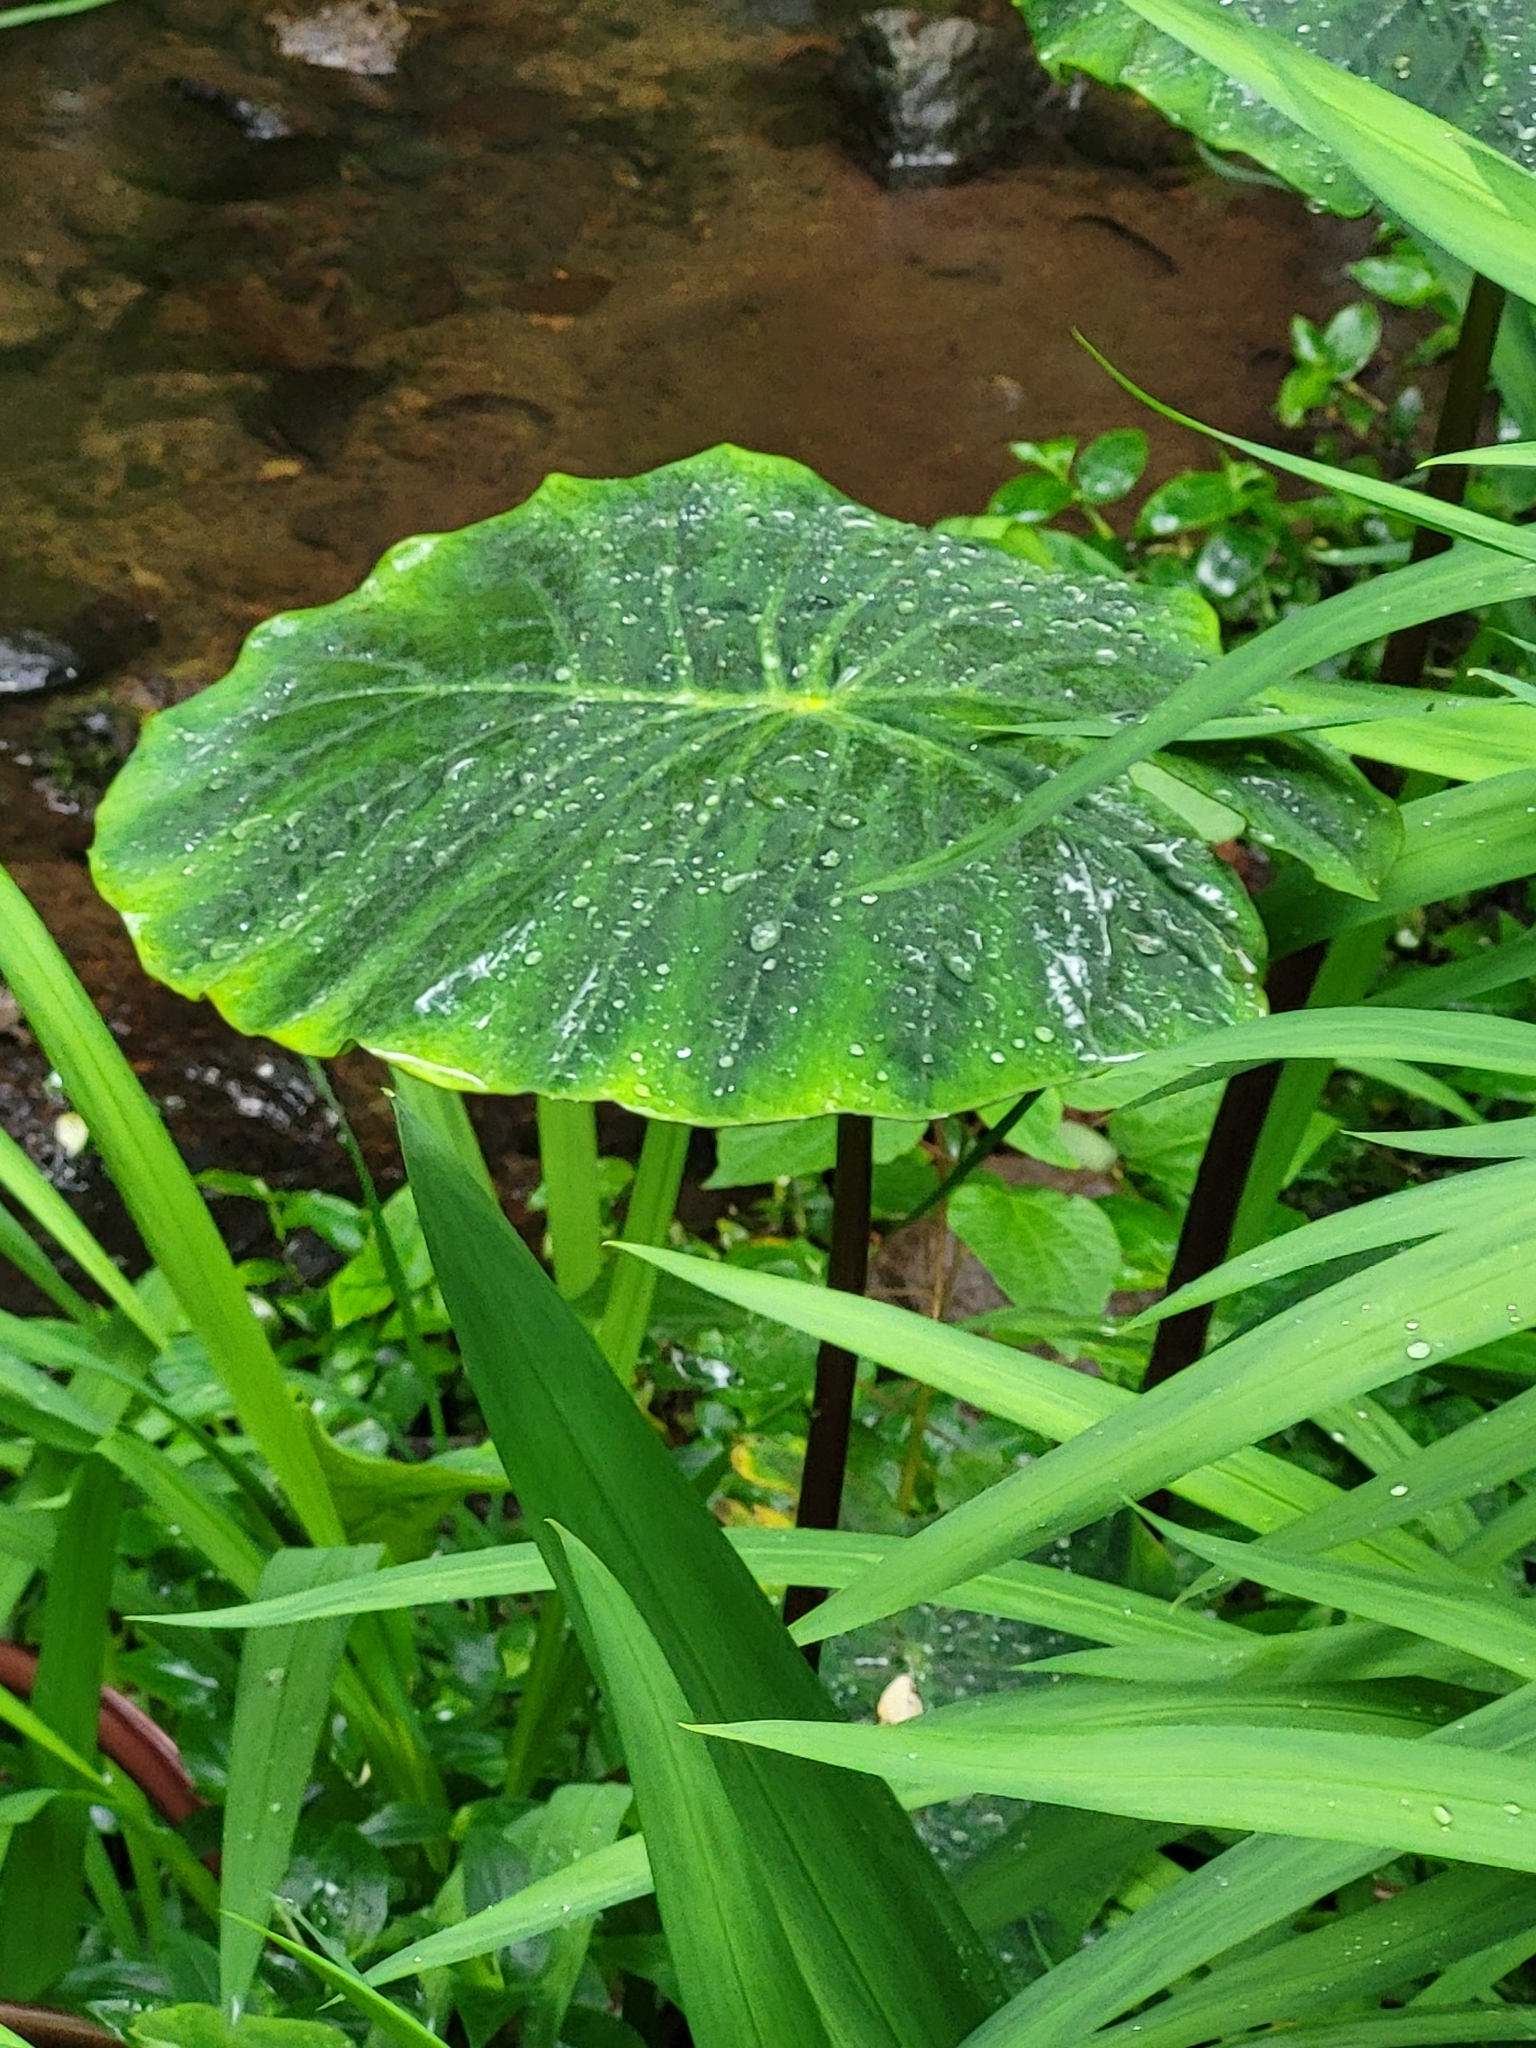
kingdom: Plantae
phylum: Tracheophyta
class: Liliopsida
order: Alismatales
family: Araceae
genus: Colocasia
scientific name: Colocasia esculenta
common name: Taro
